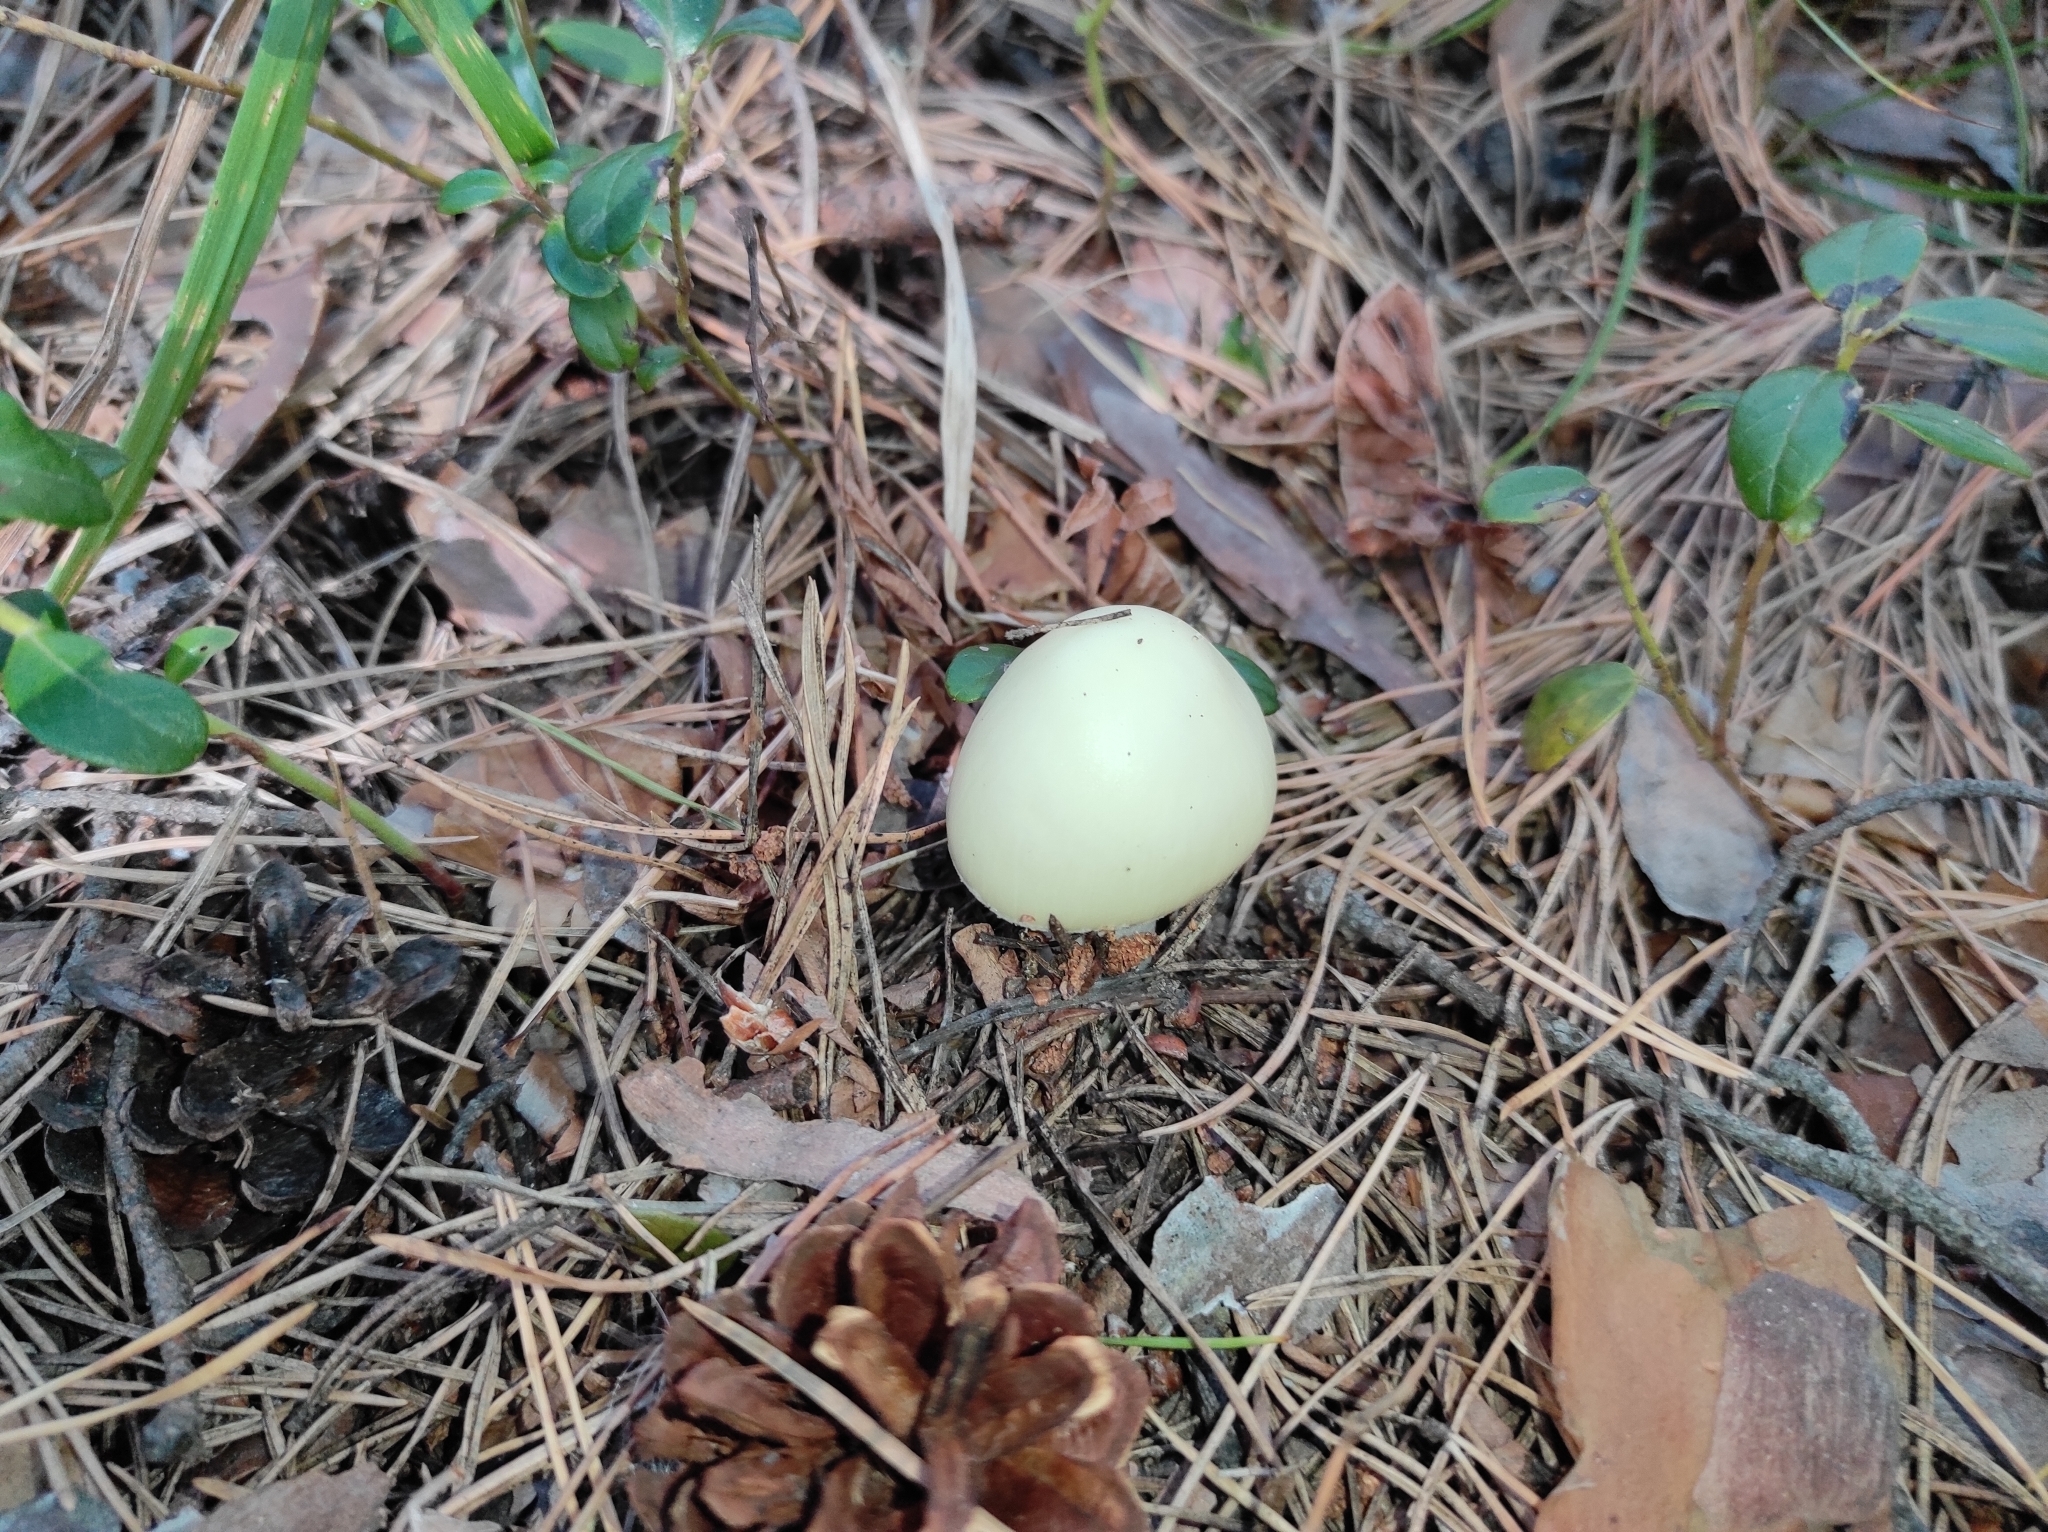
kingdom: Fungi
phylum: Basidiomycota
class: Agaricomycetes
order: Agaricales
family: Amanitaceae
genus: Amanita
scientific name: Amanita phalloides
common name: Death cap
